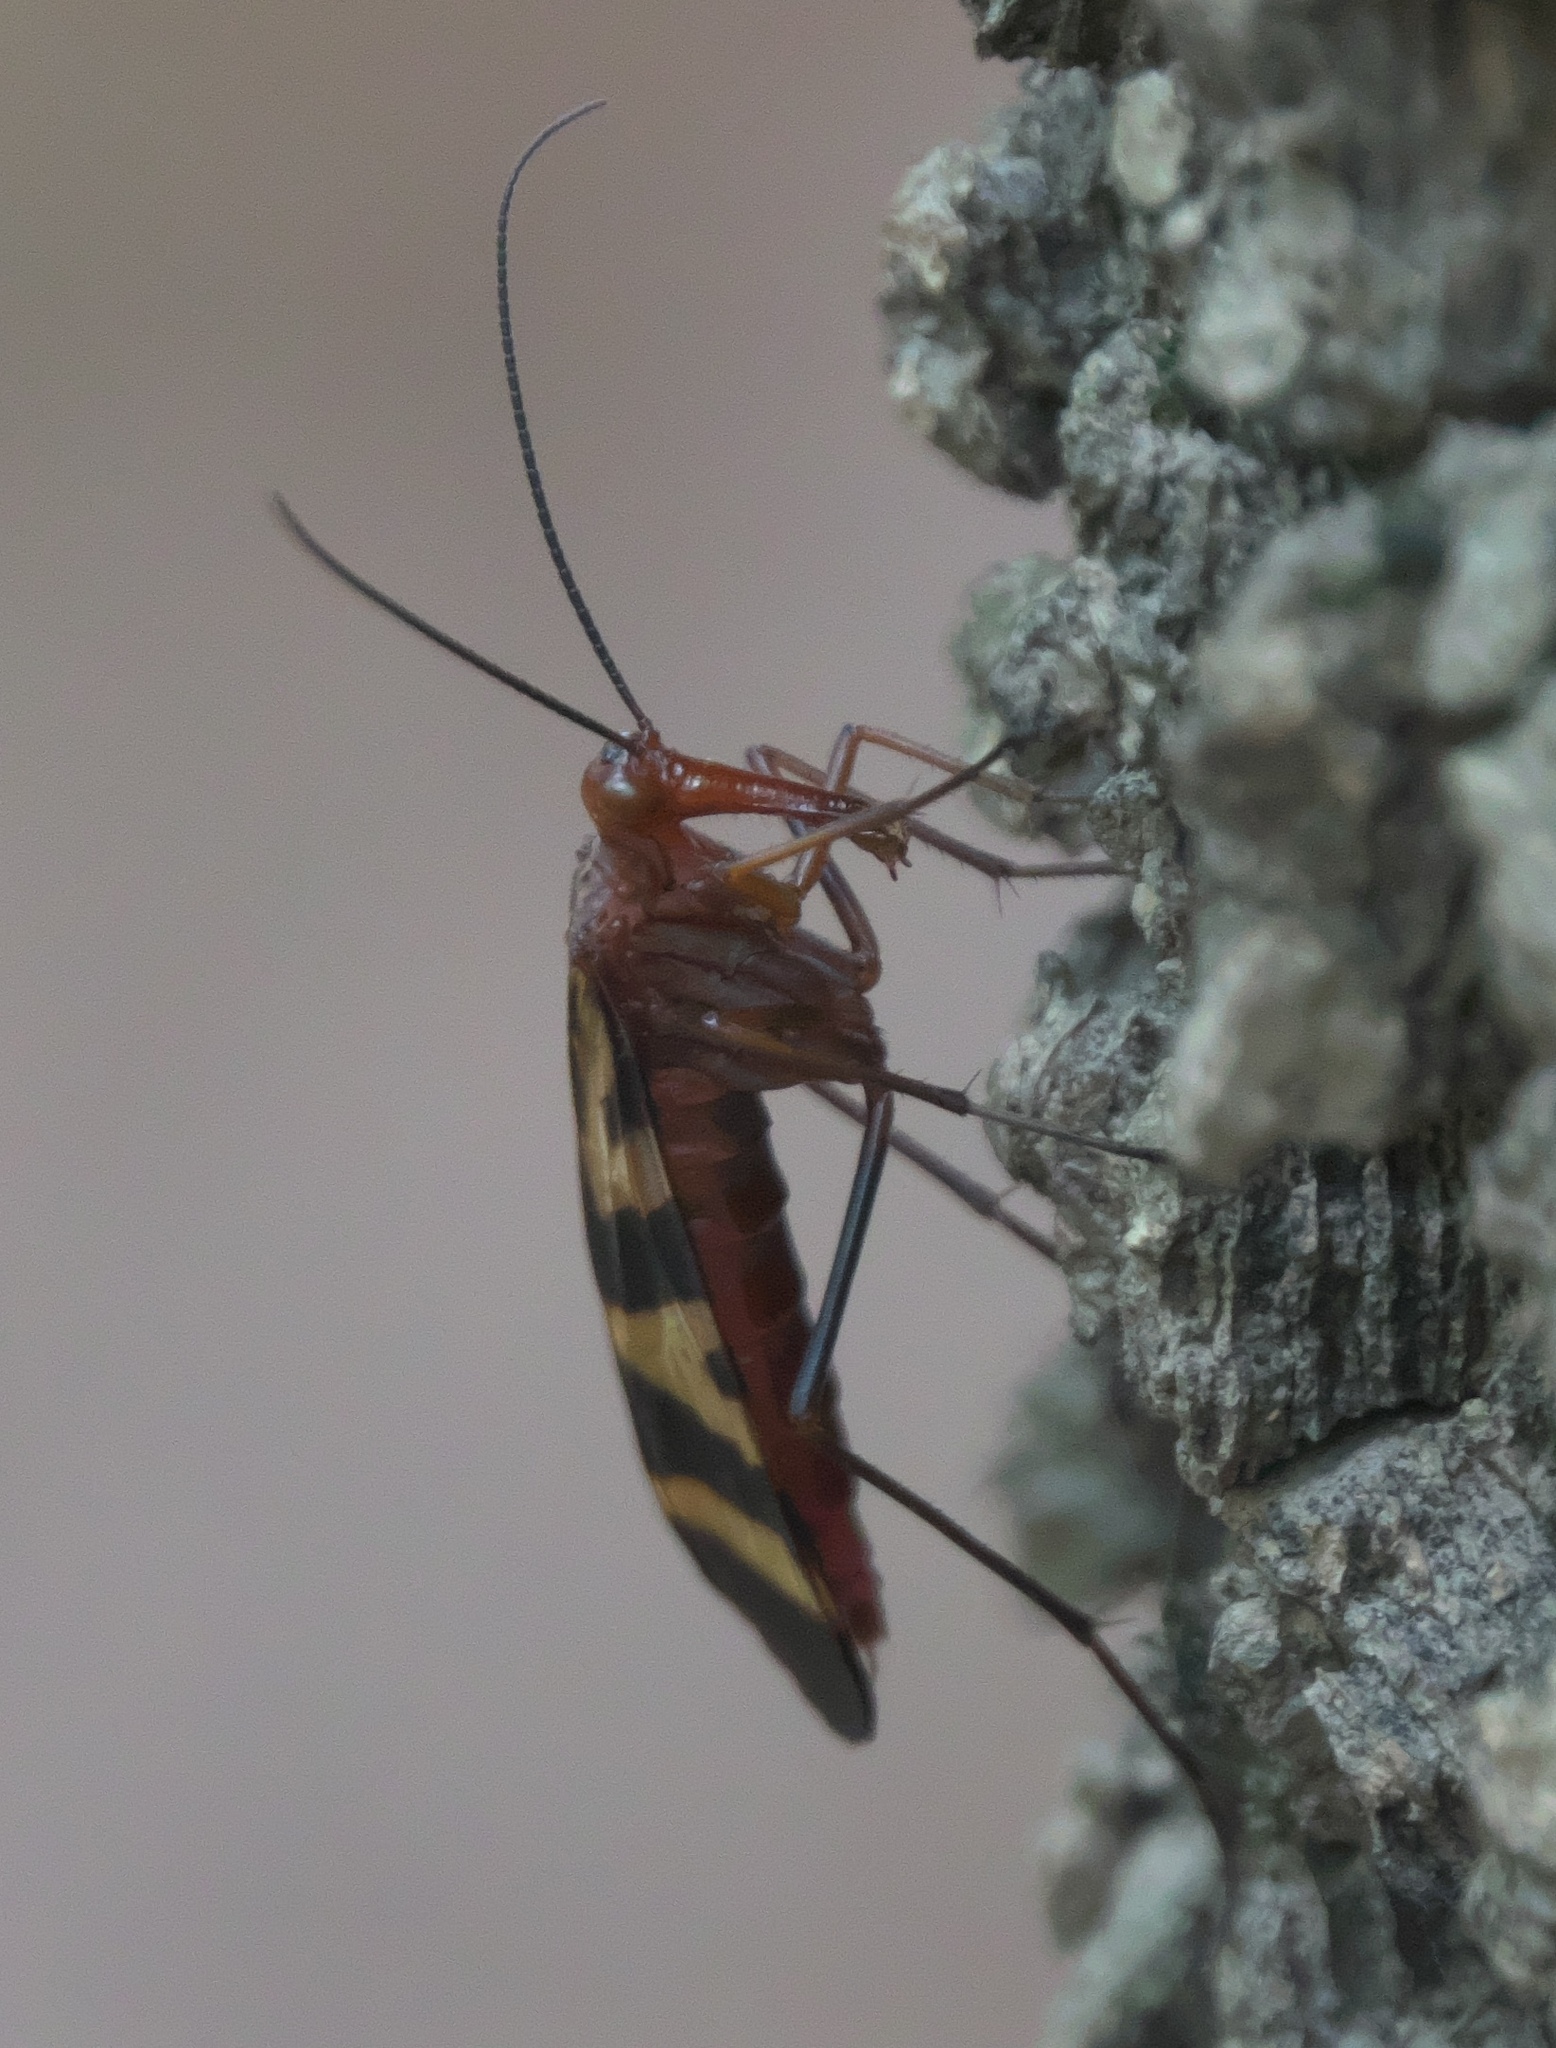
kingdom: Animalia
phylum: Arthropoda
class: Insecta
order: Mecoptera
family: Panorpidae
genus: Panorpa
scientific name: Panorpa nuptialis
